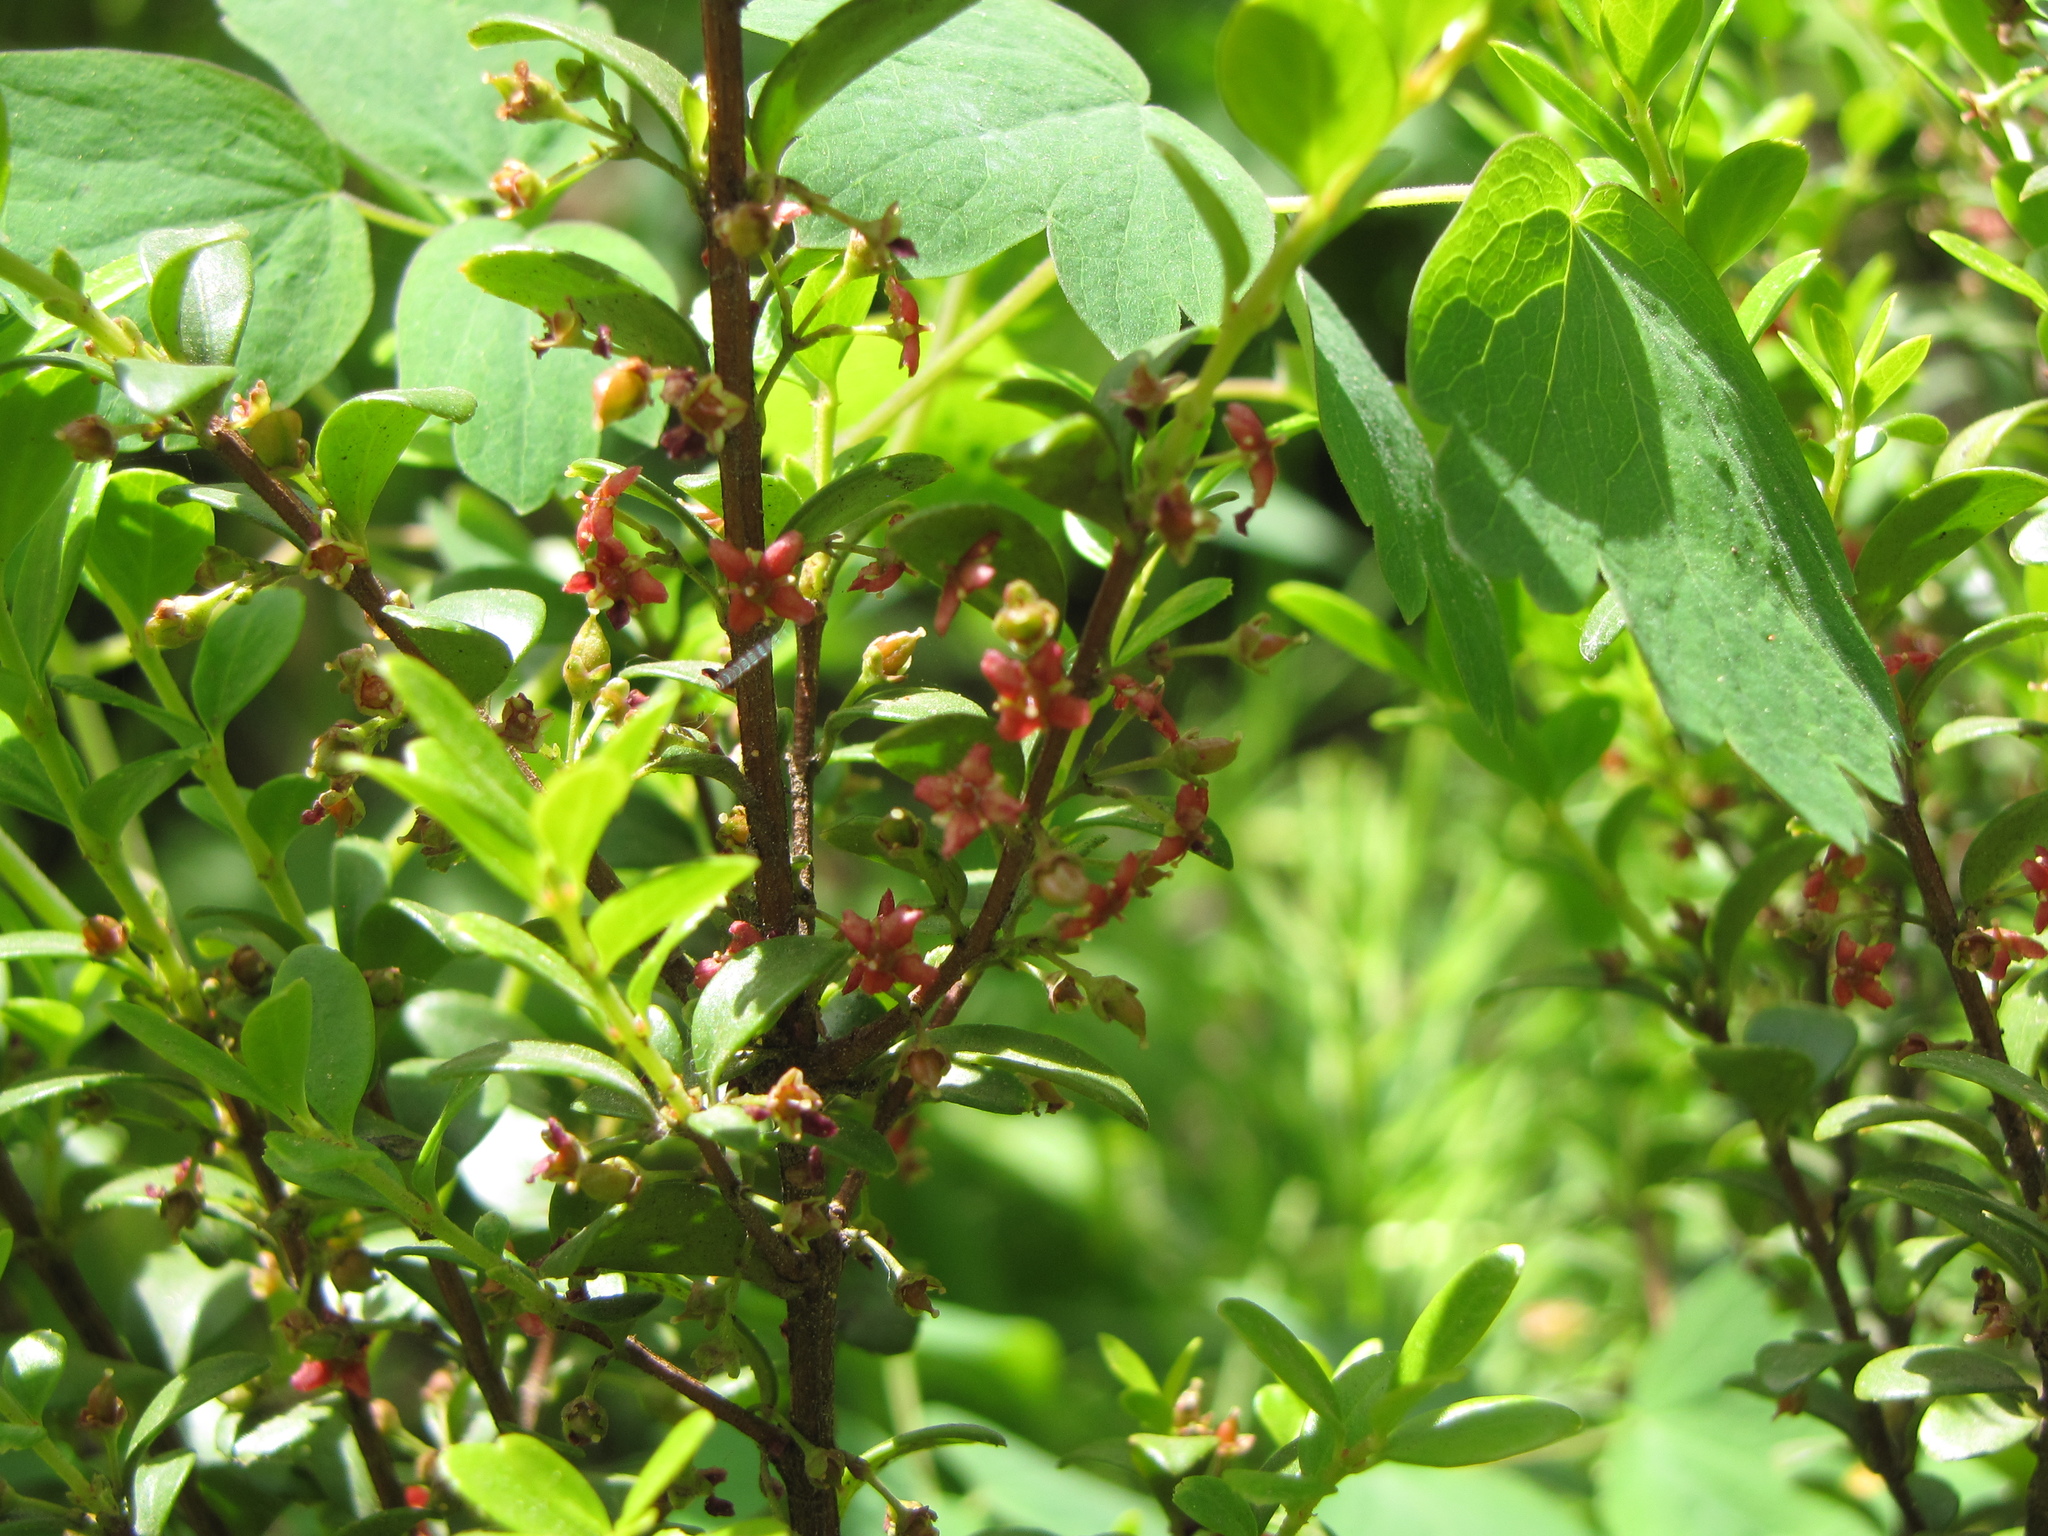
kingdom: Plantae
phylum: Tracheophyta
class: Magnoliopsida
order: Celastrales
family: Celastraceae
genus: Paxistima
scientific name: Paxistima myrsinites
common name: Mountain-lover
